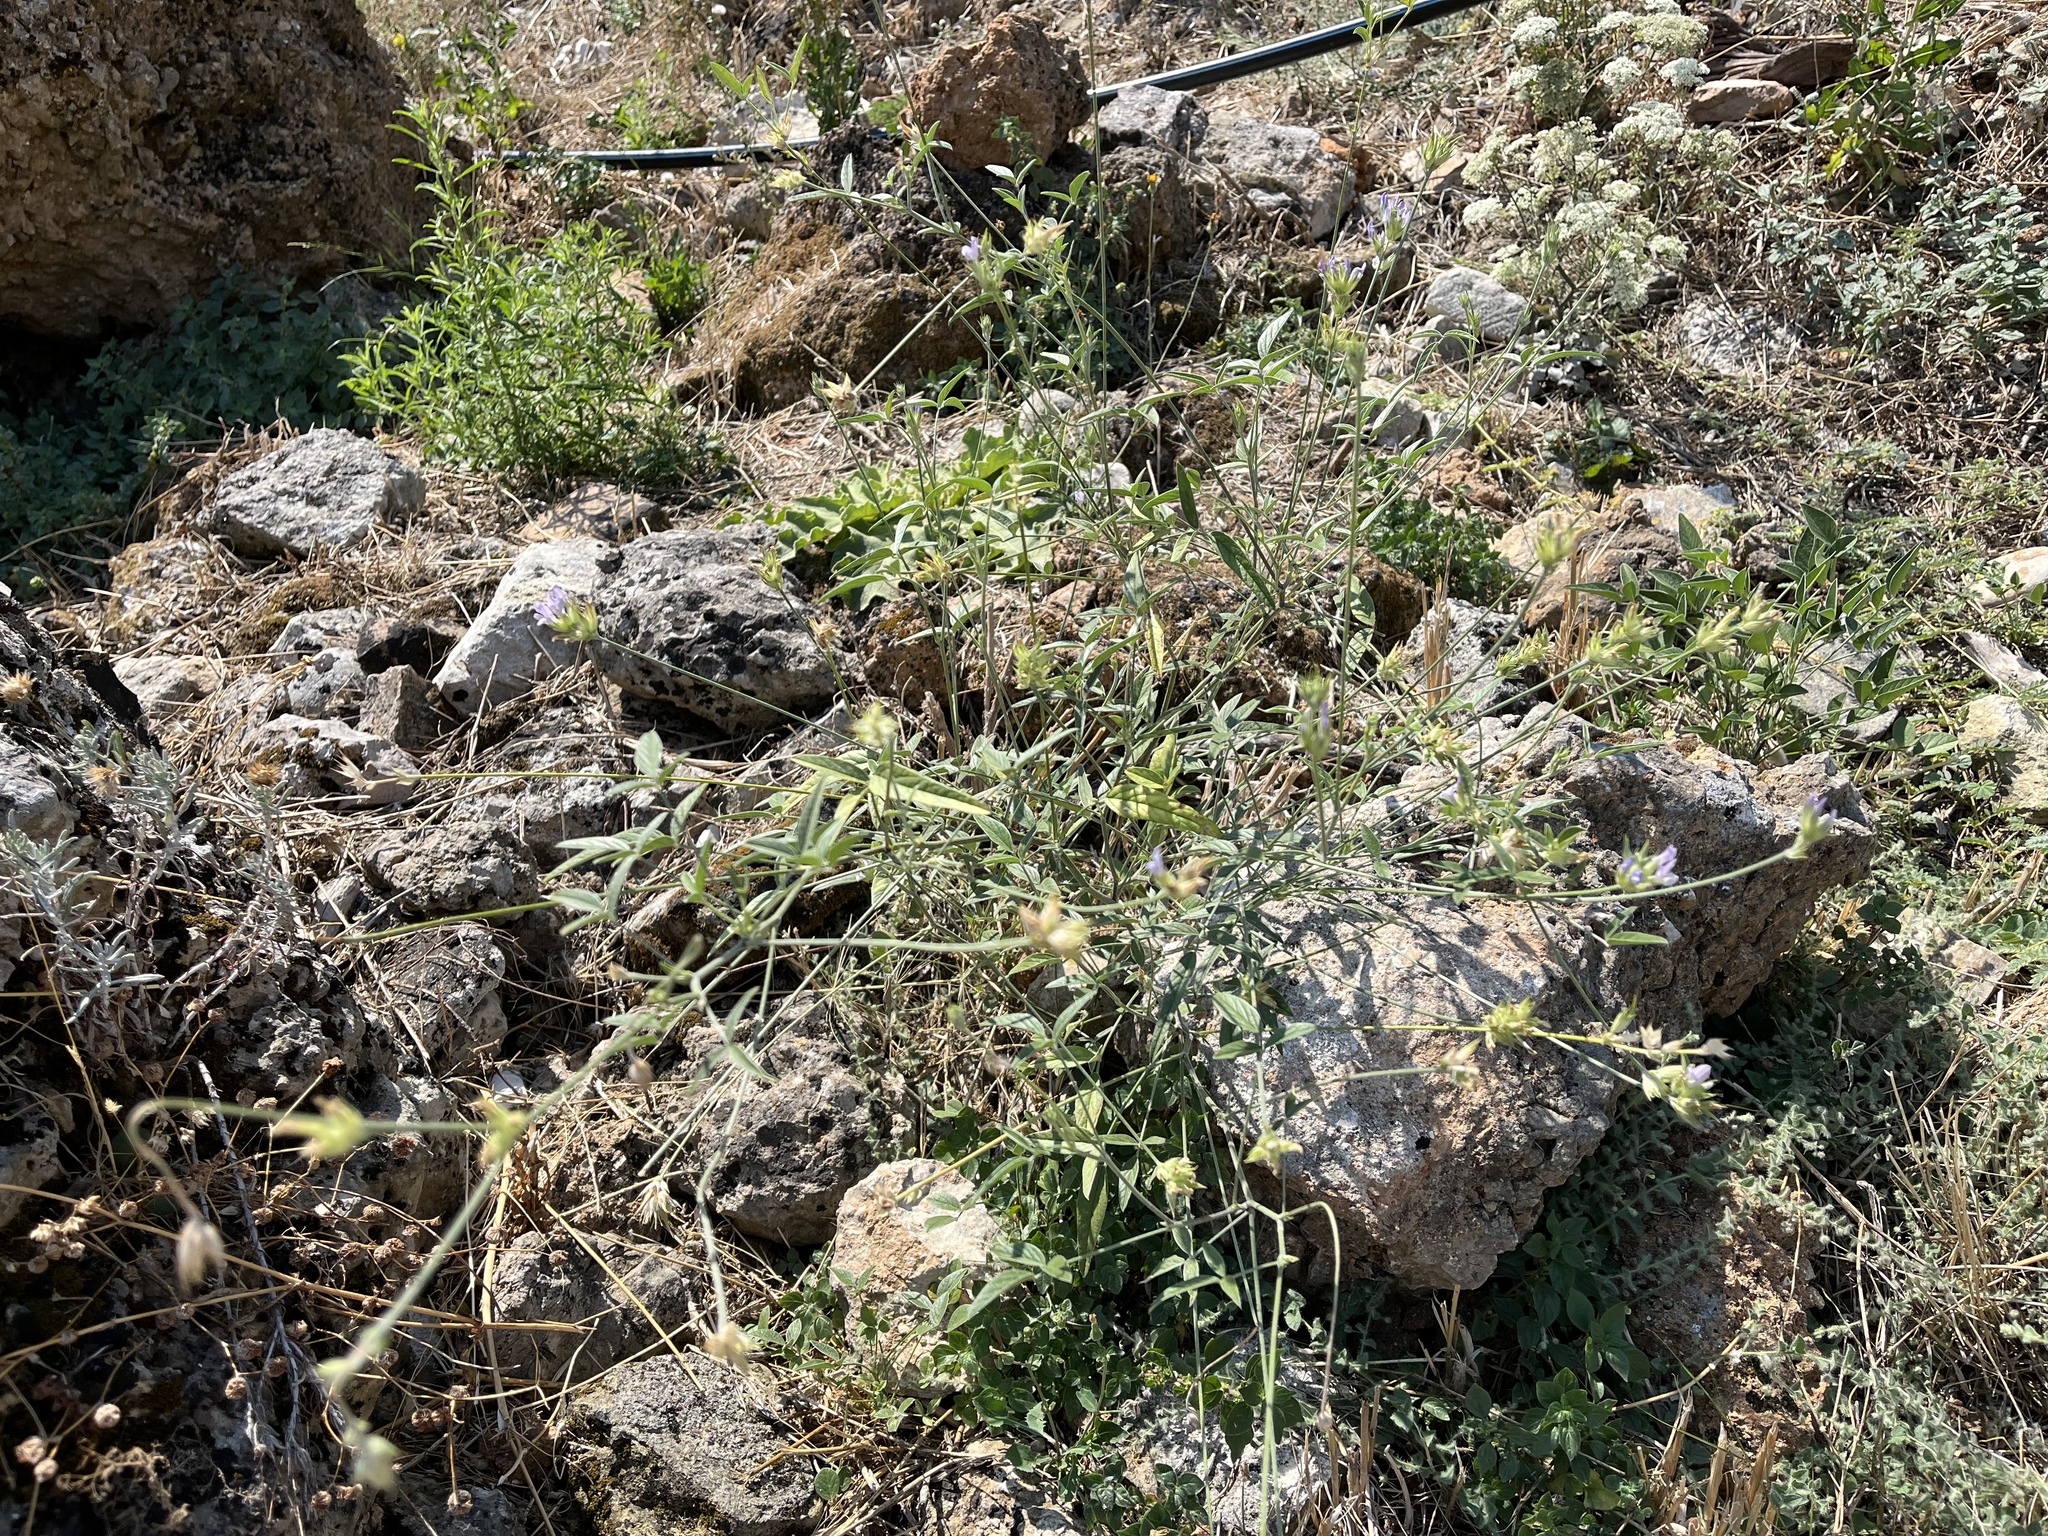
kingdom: Plantae
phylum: Tracheophyta
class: Magnoliopsida
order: Fabales
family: Fabaceae
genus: Bituminaria
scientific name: Bituminaria bituminosa
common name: Arabian pea
